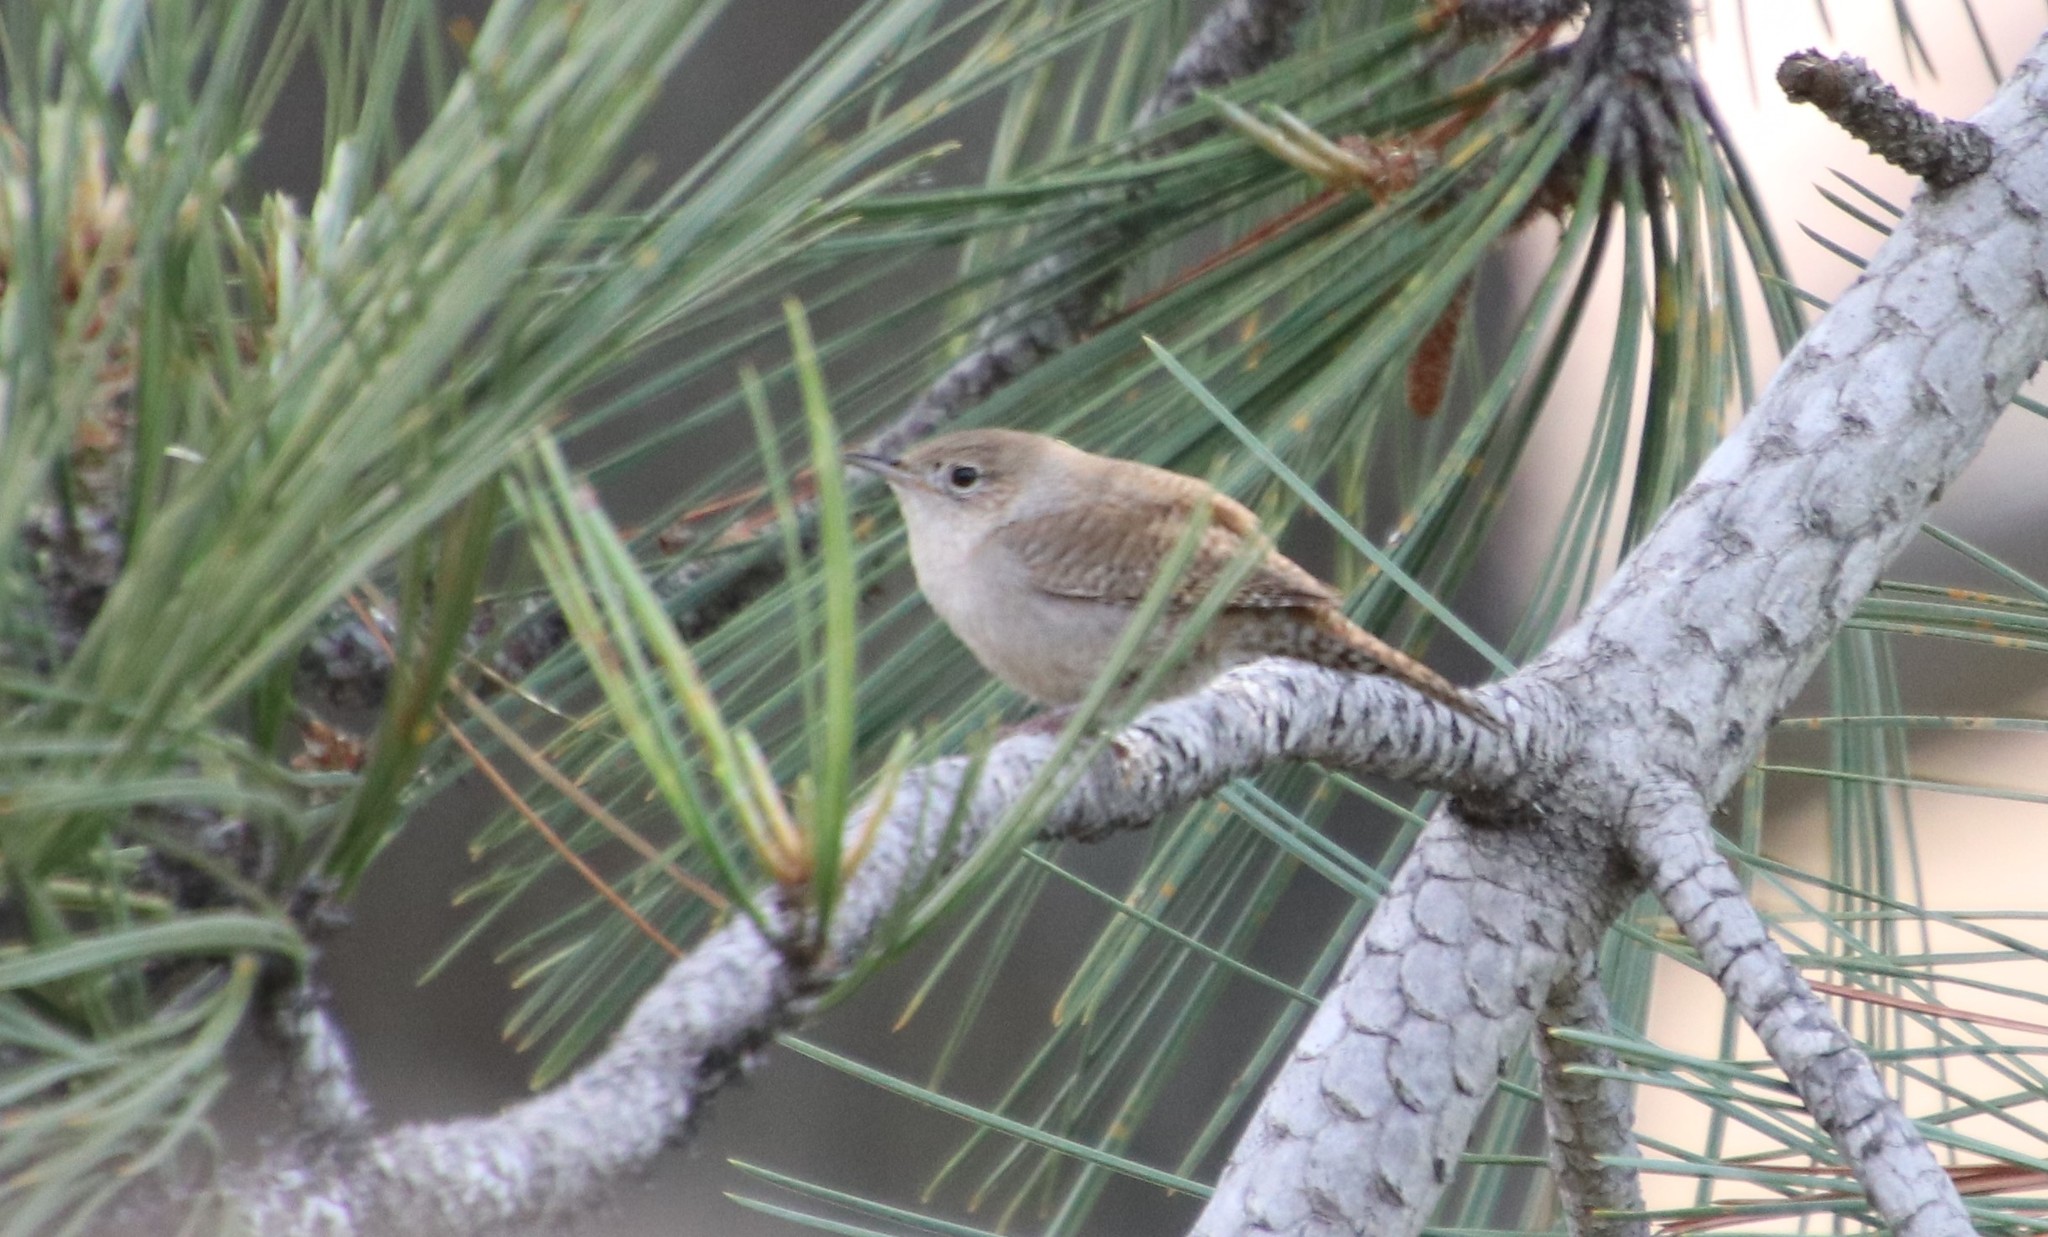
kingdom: Animalia
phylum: Chordata
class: Aves
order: Passeriformes
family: Troglodytidae
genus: Troglodytes
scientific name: Troglodytes aedon
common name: House wren
